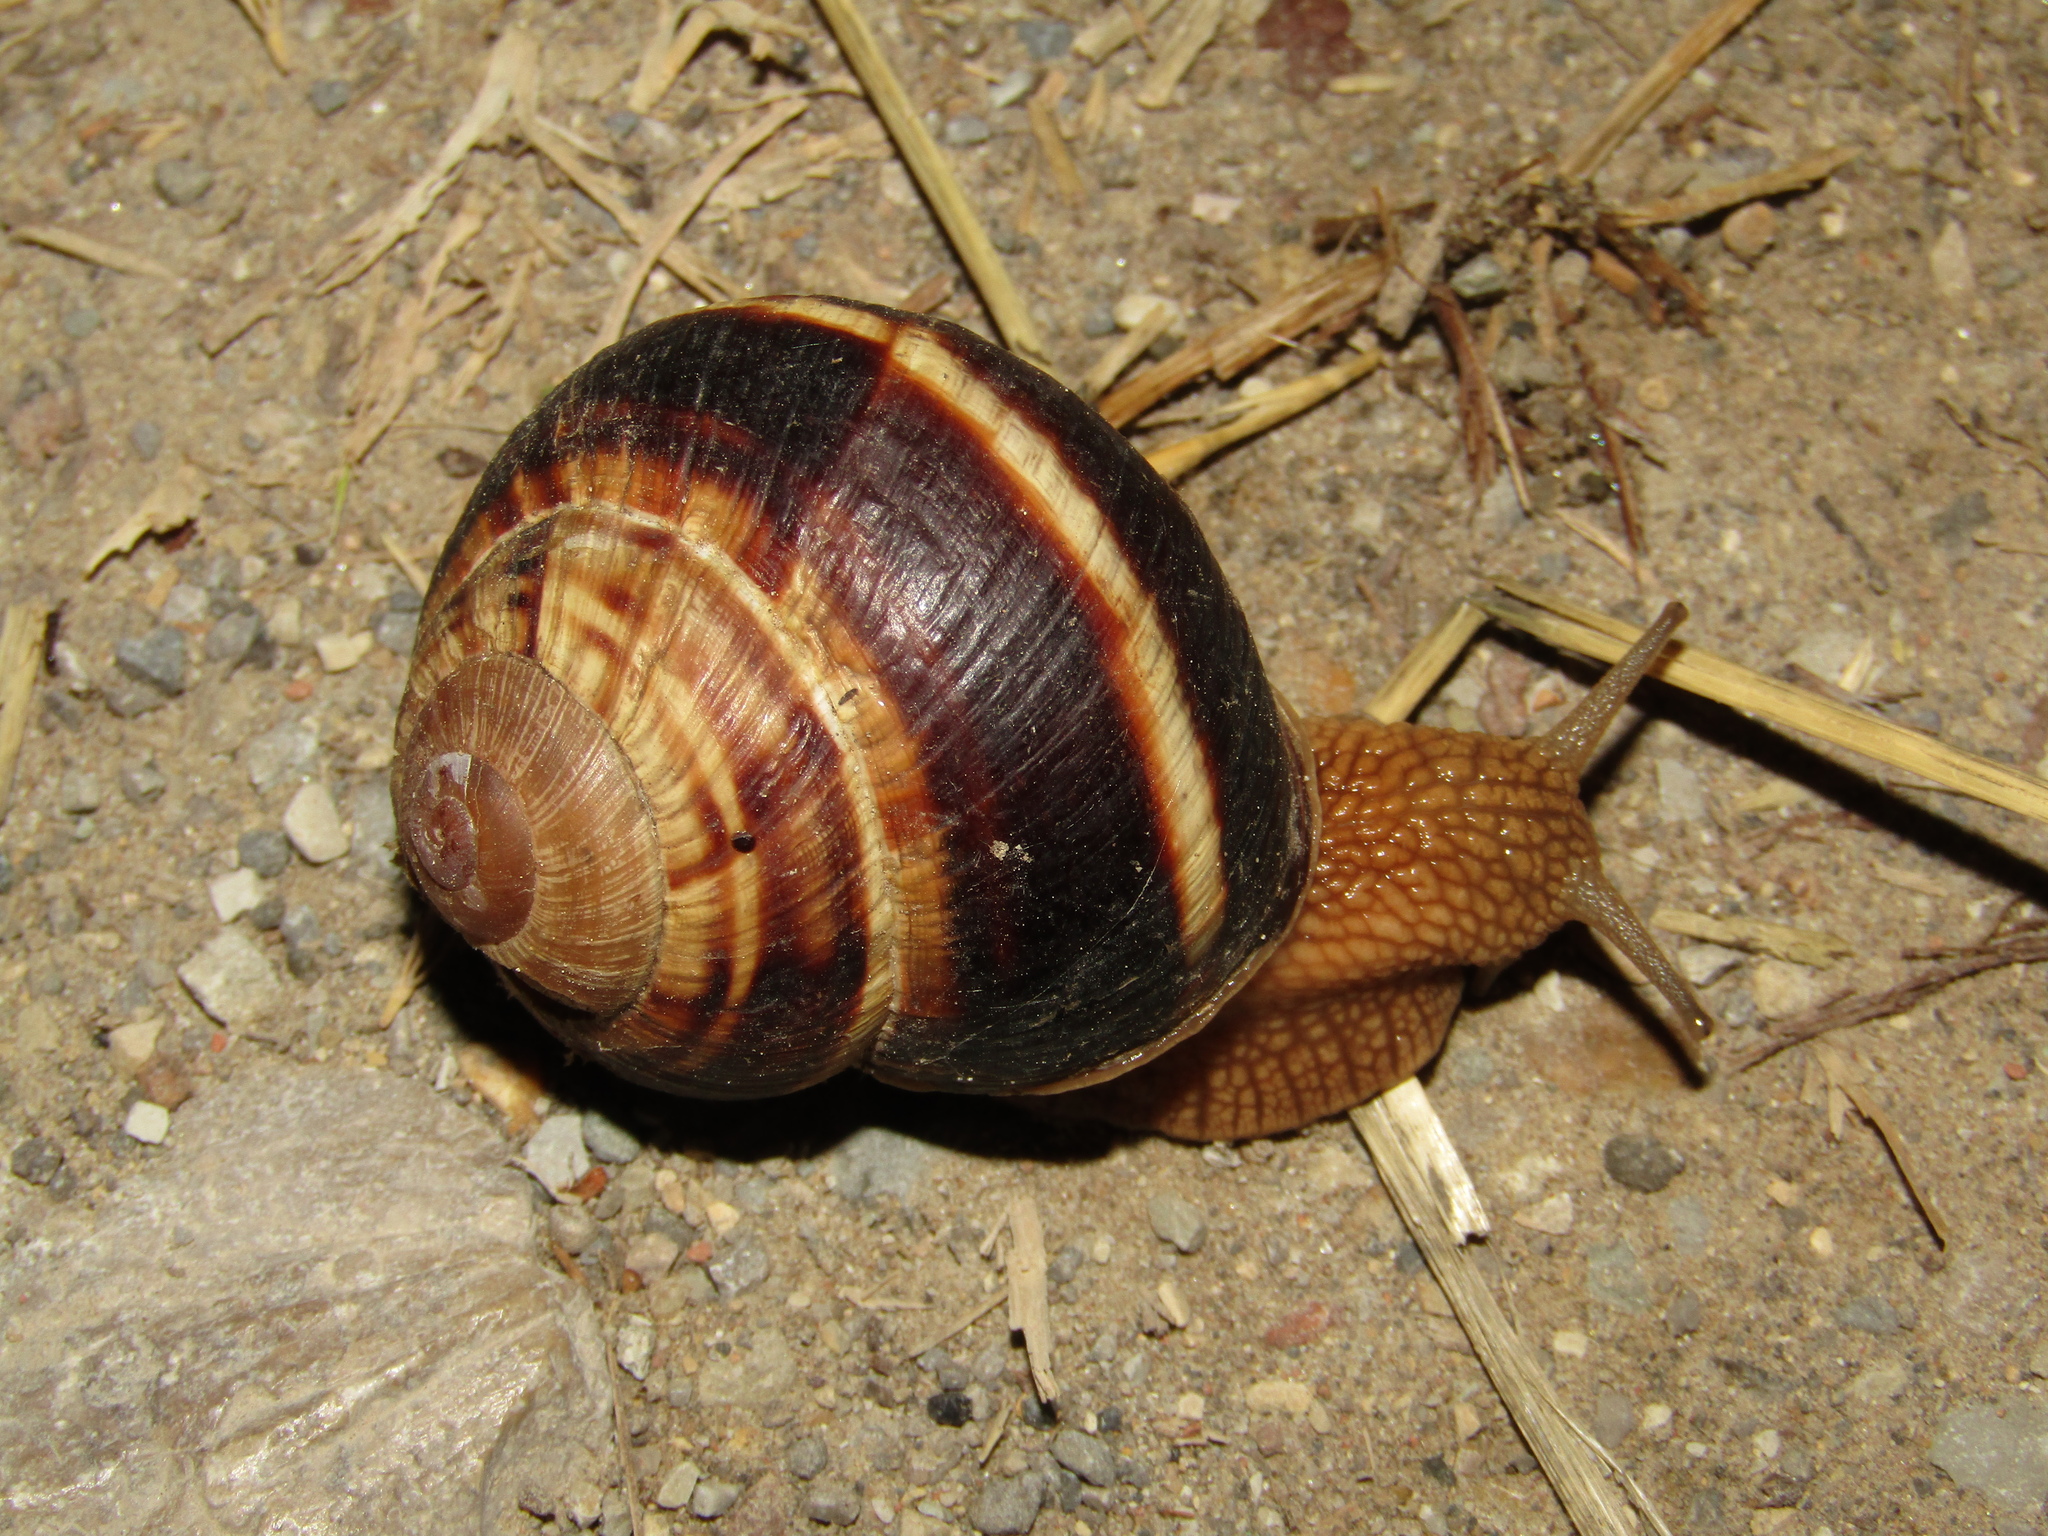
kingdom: Animalia
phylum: Mollusca
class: Gastropoda
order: Stylommatophora
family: Helicidae
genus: Helix
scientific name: Helix lucorum
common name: Turkish snail
